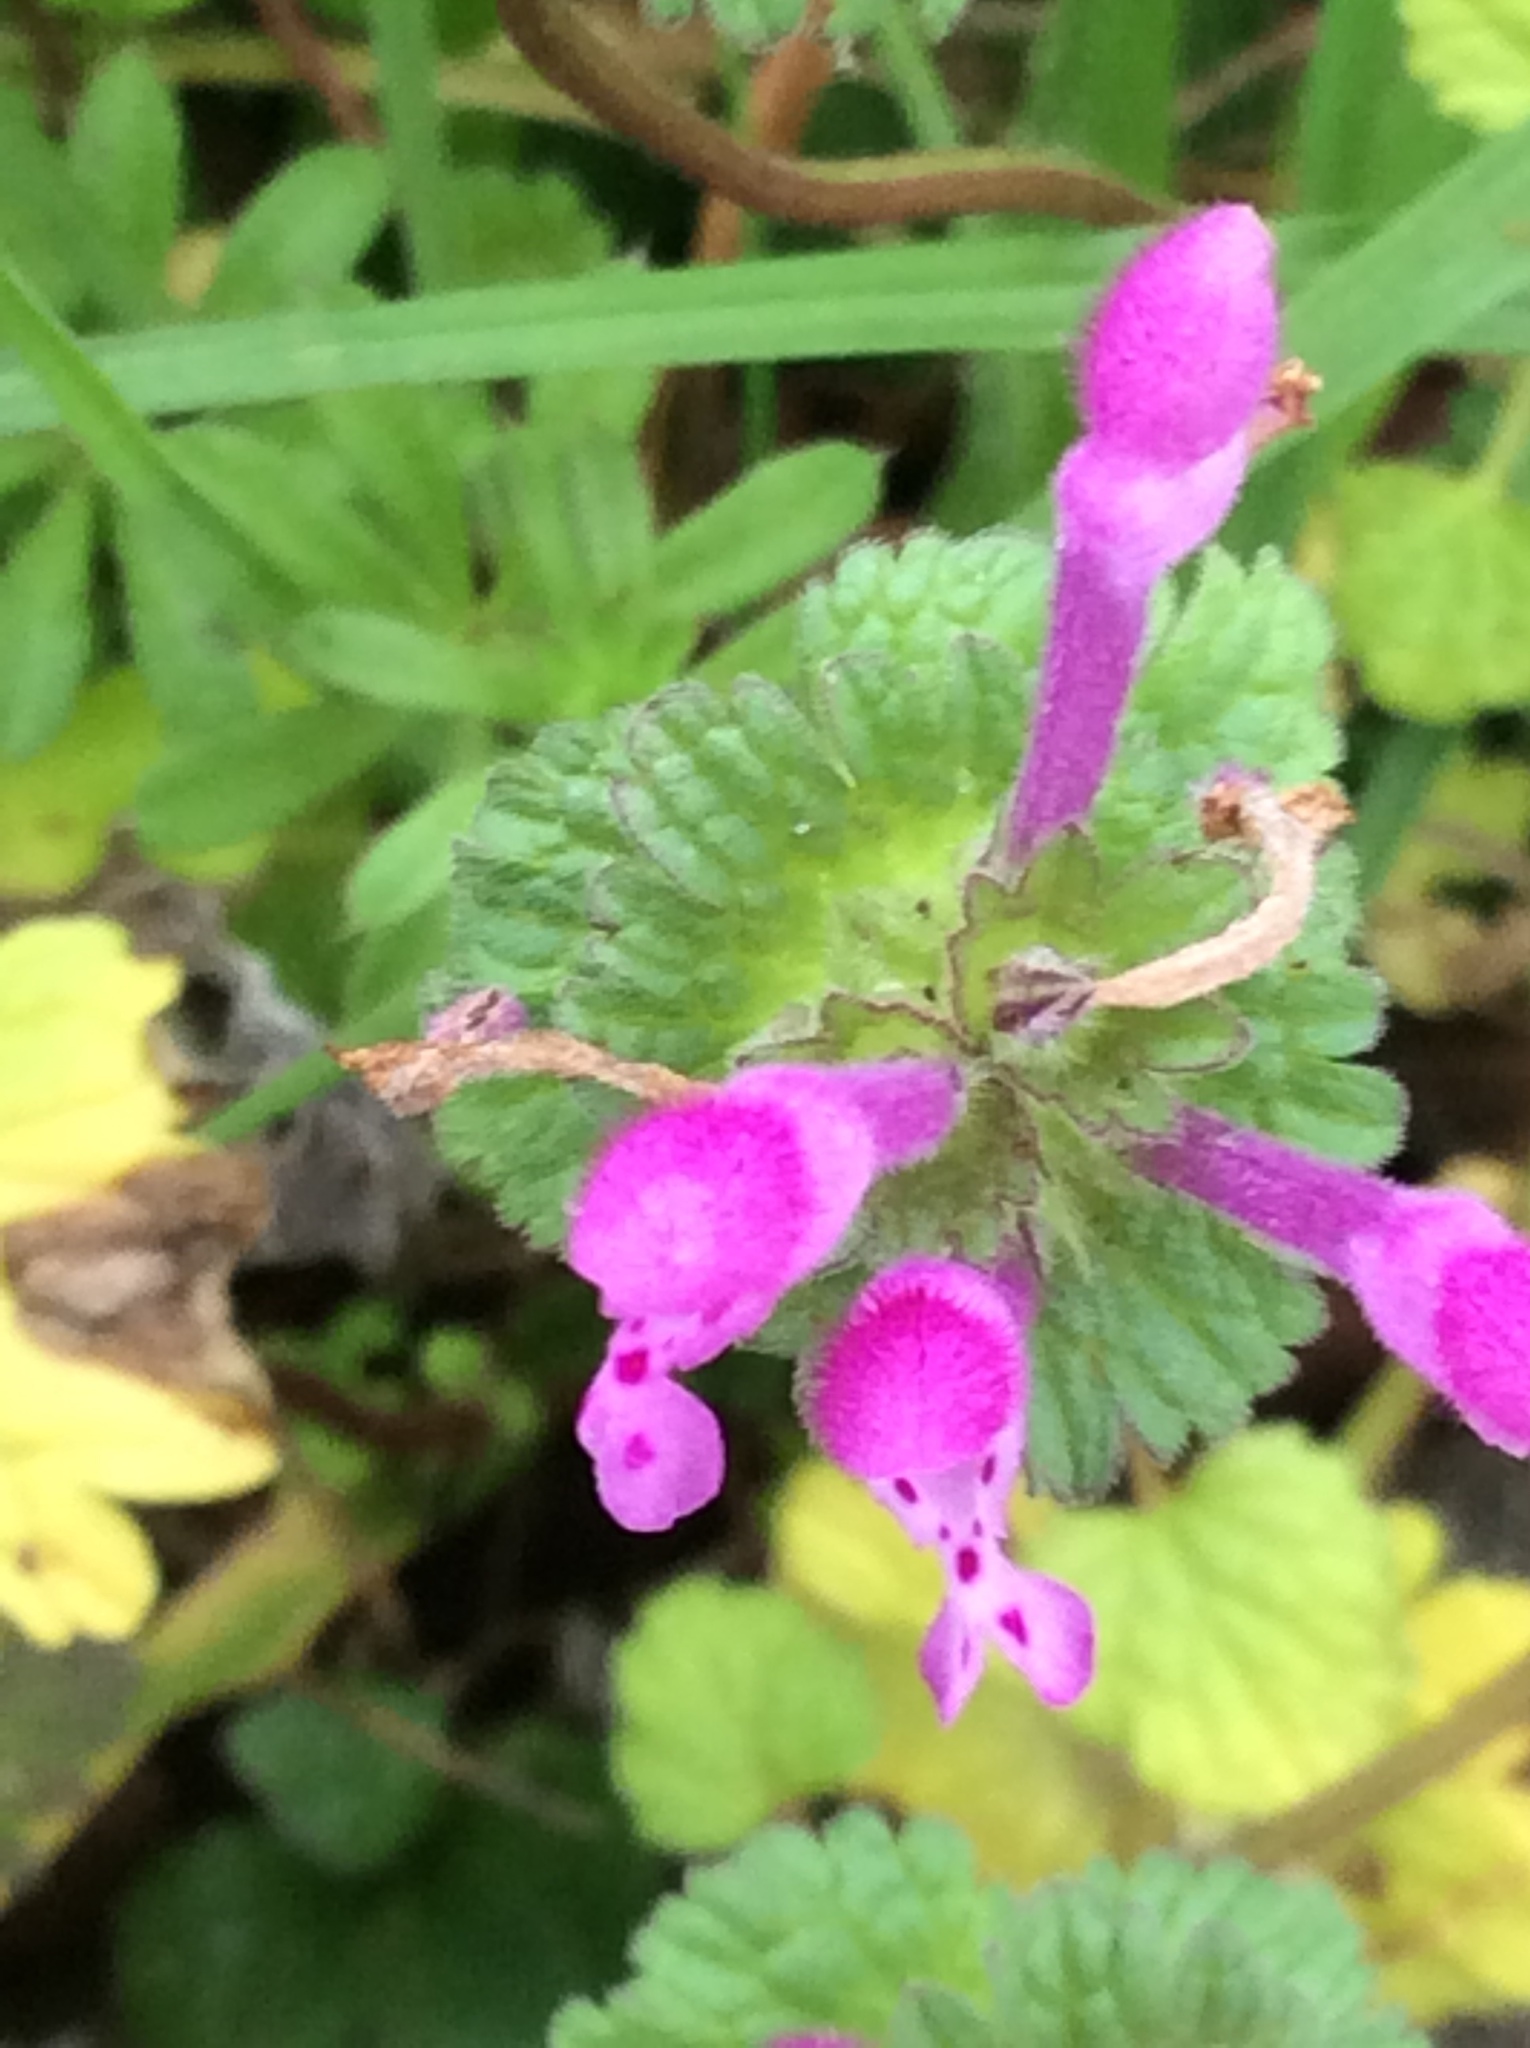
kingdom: Plantae
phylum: Tracheophyta
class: Magnoliopsida
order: Lamiales
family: Lamiaceae
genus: Lamium
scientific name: Lamium amplexicaule
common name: Henbit dead-nettle
